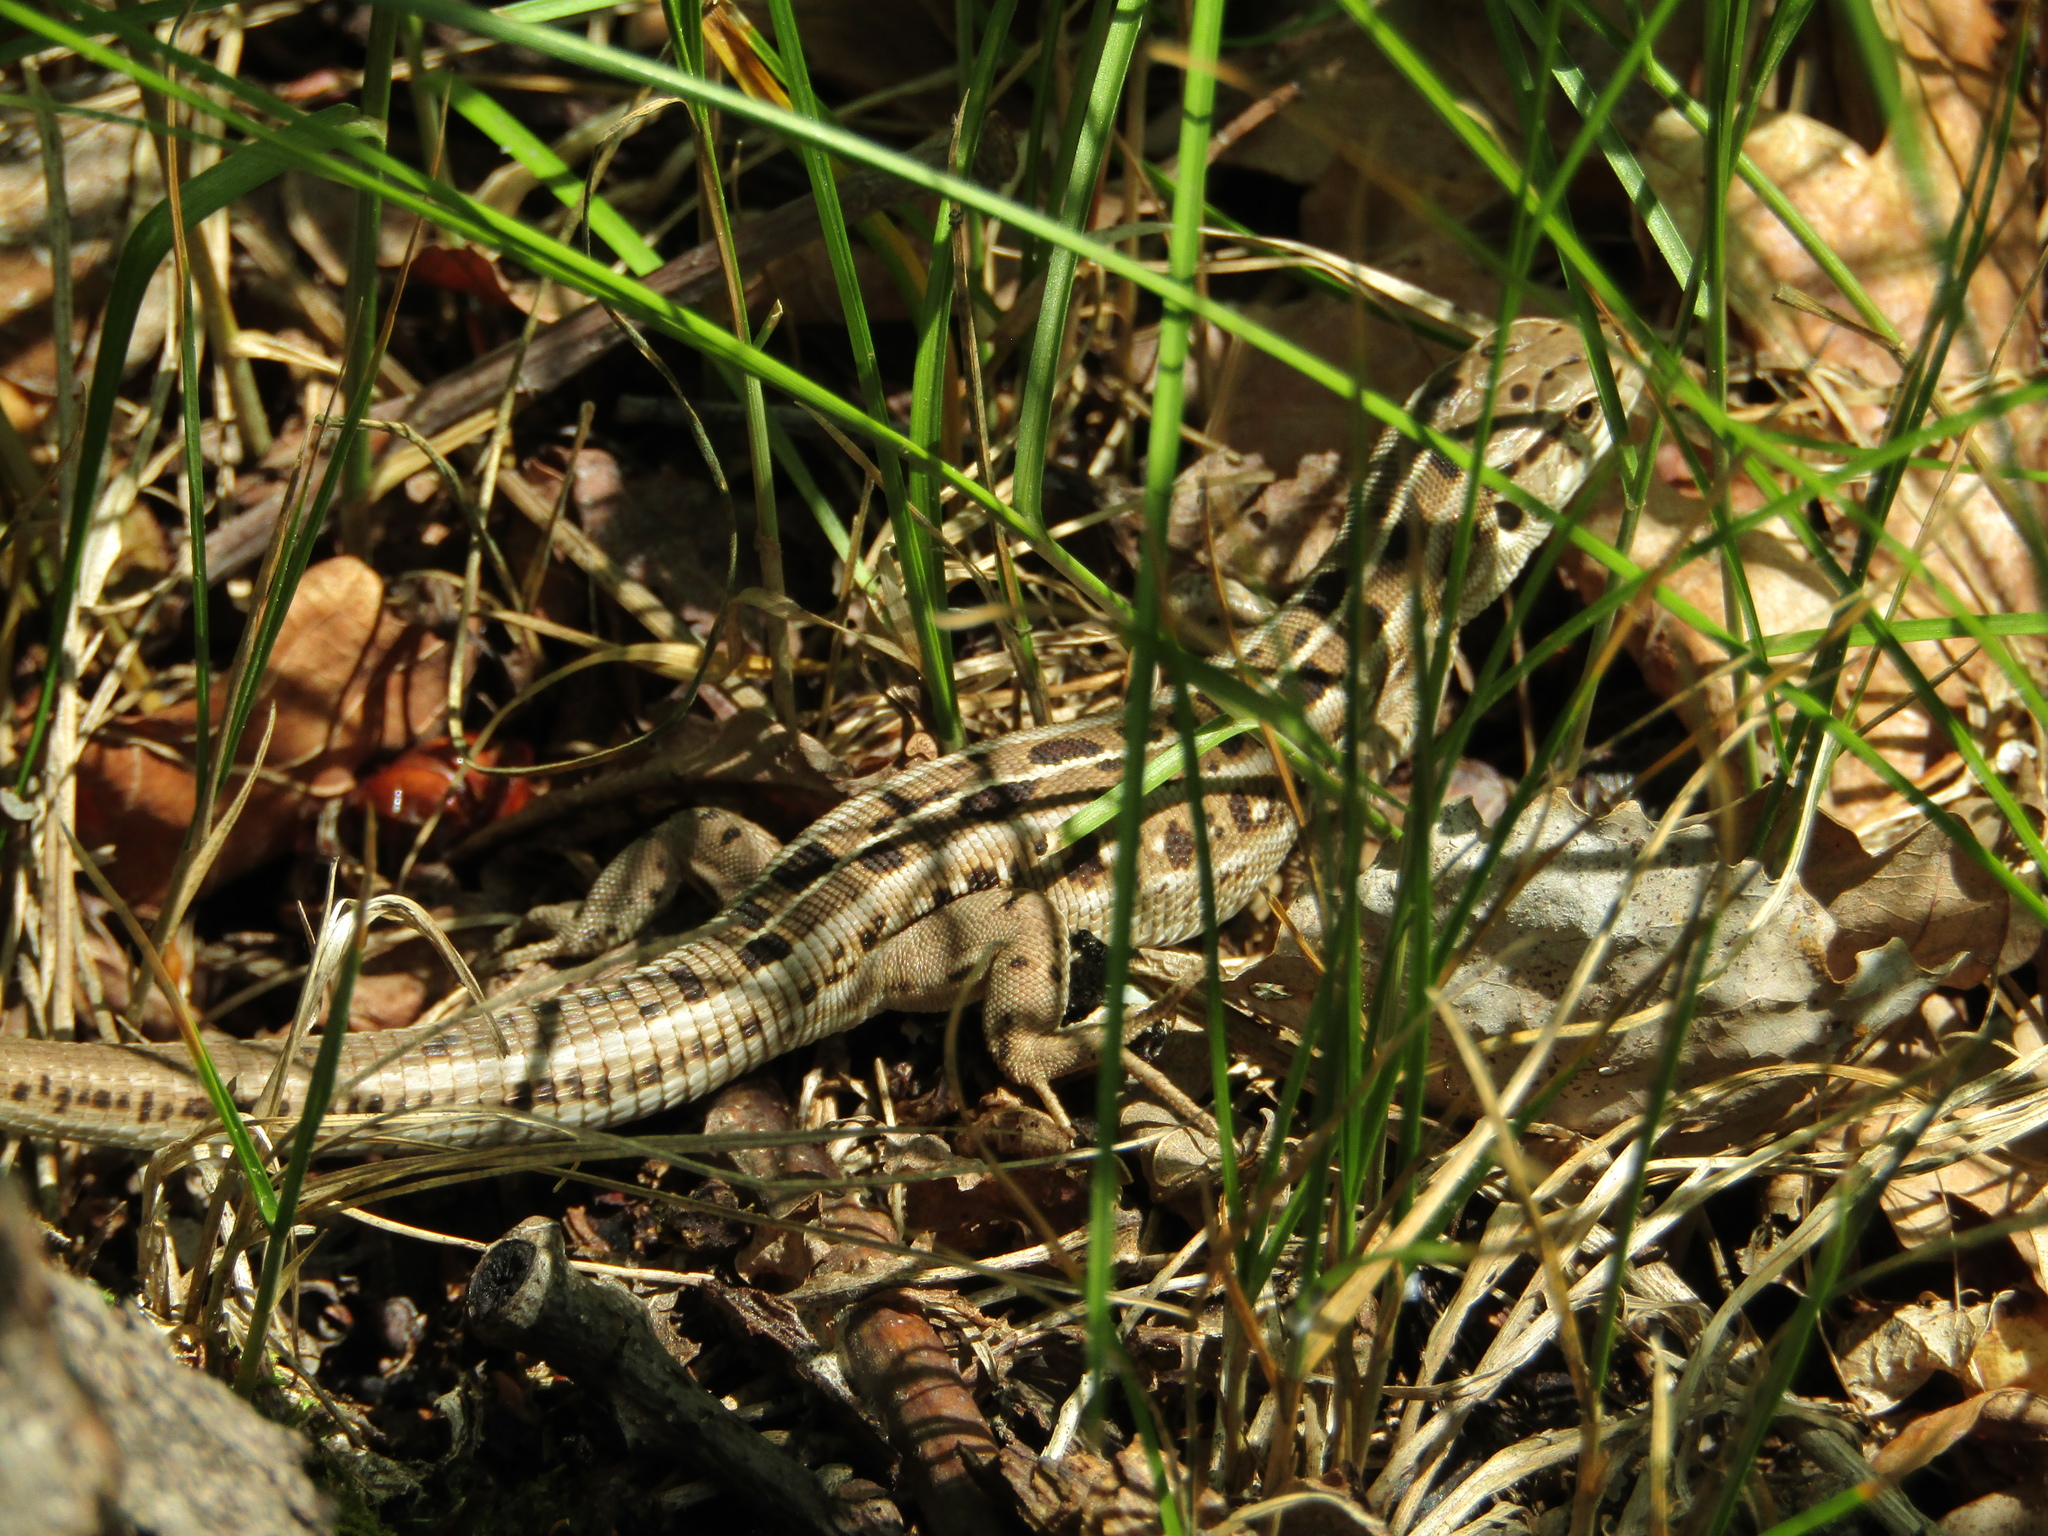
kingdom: Animalia
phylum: Chordata
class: Squamata
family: Lacertidae
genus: Lacerta
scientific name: Lacerta agilis
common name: Sand lizard
